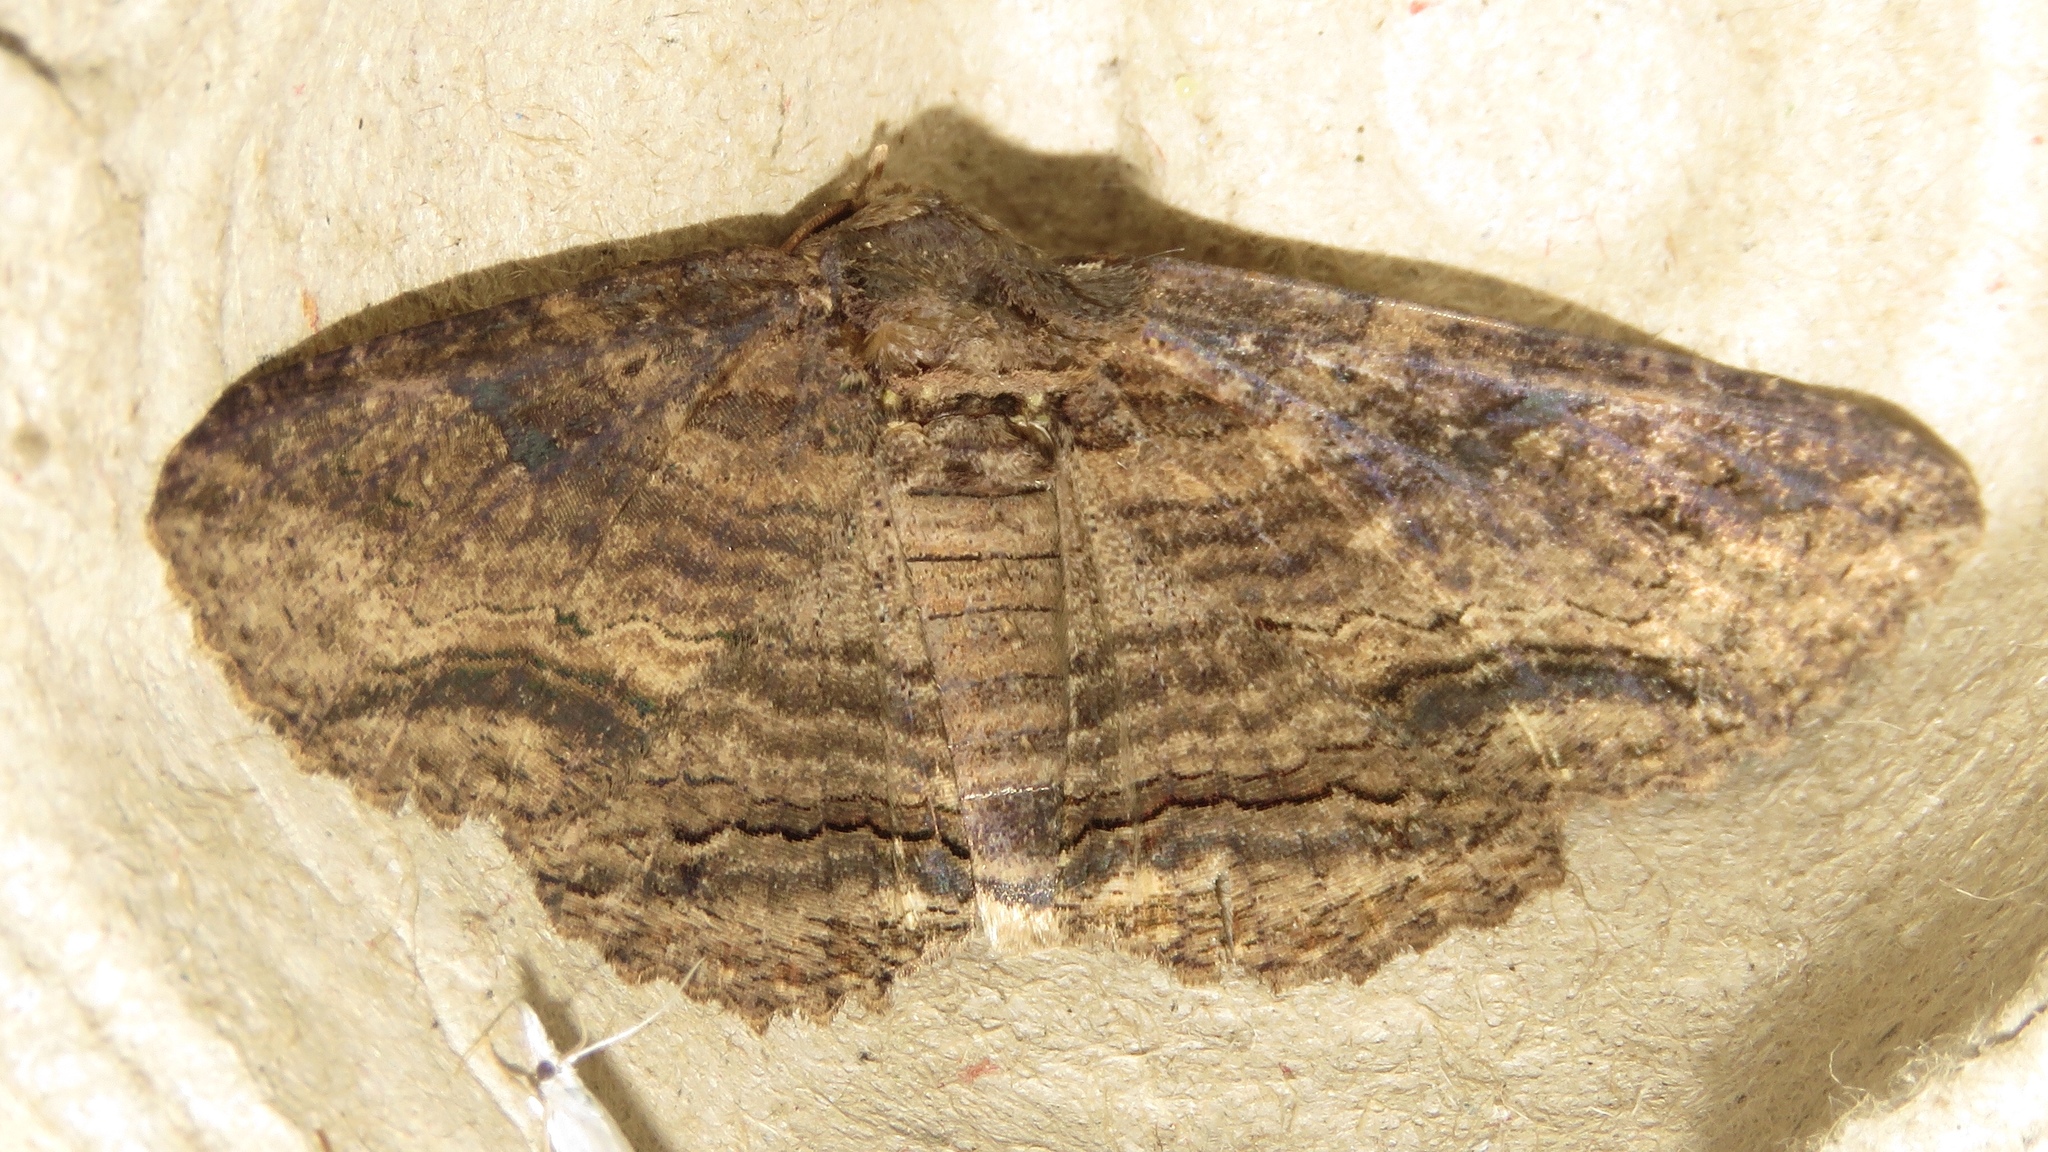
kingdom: Animalia
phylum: Arthropoda
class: Insecta
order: Lepidoptera
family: Erebidae
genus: Zale
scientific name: Zale lunata
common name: Lunate zale moth
